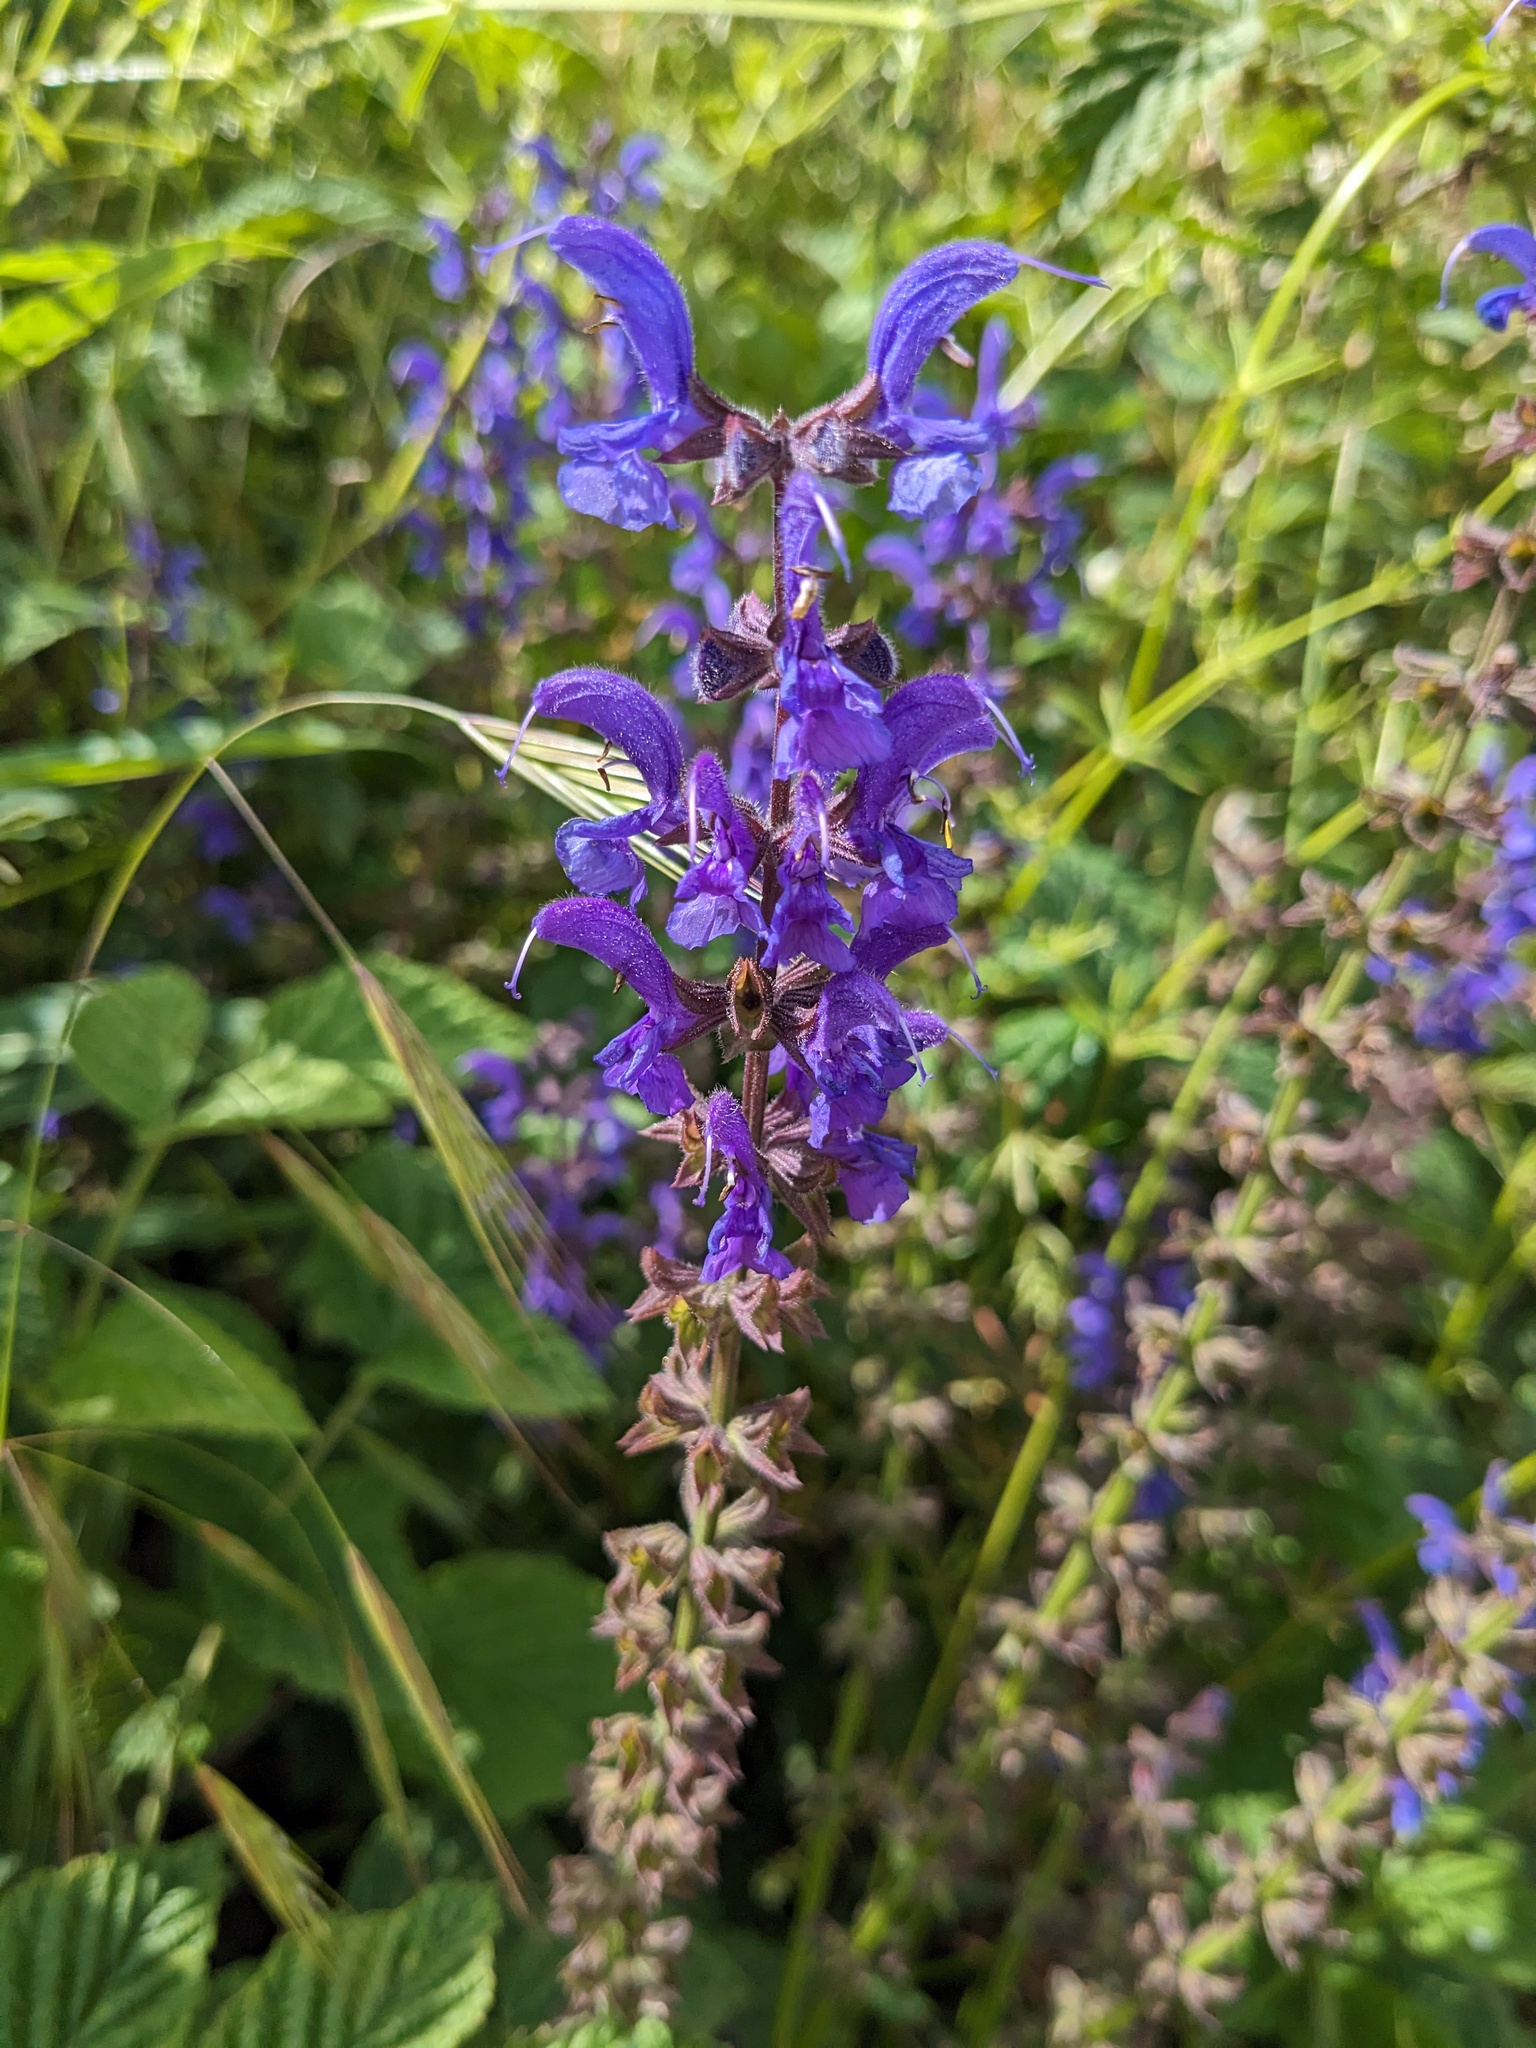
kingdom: Plantae
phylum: Tracheophyta
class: Magnoliopsida
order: Lamiales
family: Lamiaceae
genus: Salvia
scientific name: Salvia pratensis
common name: Meadow sage
